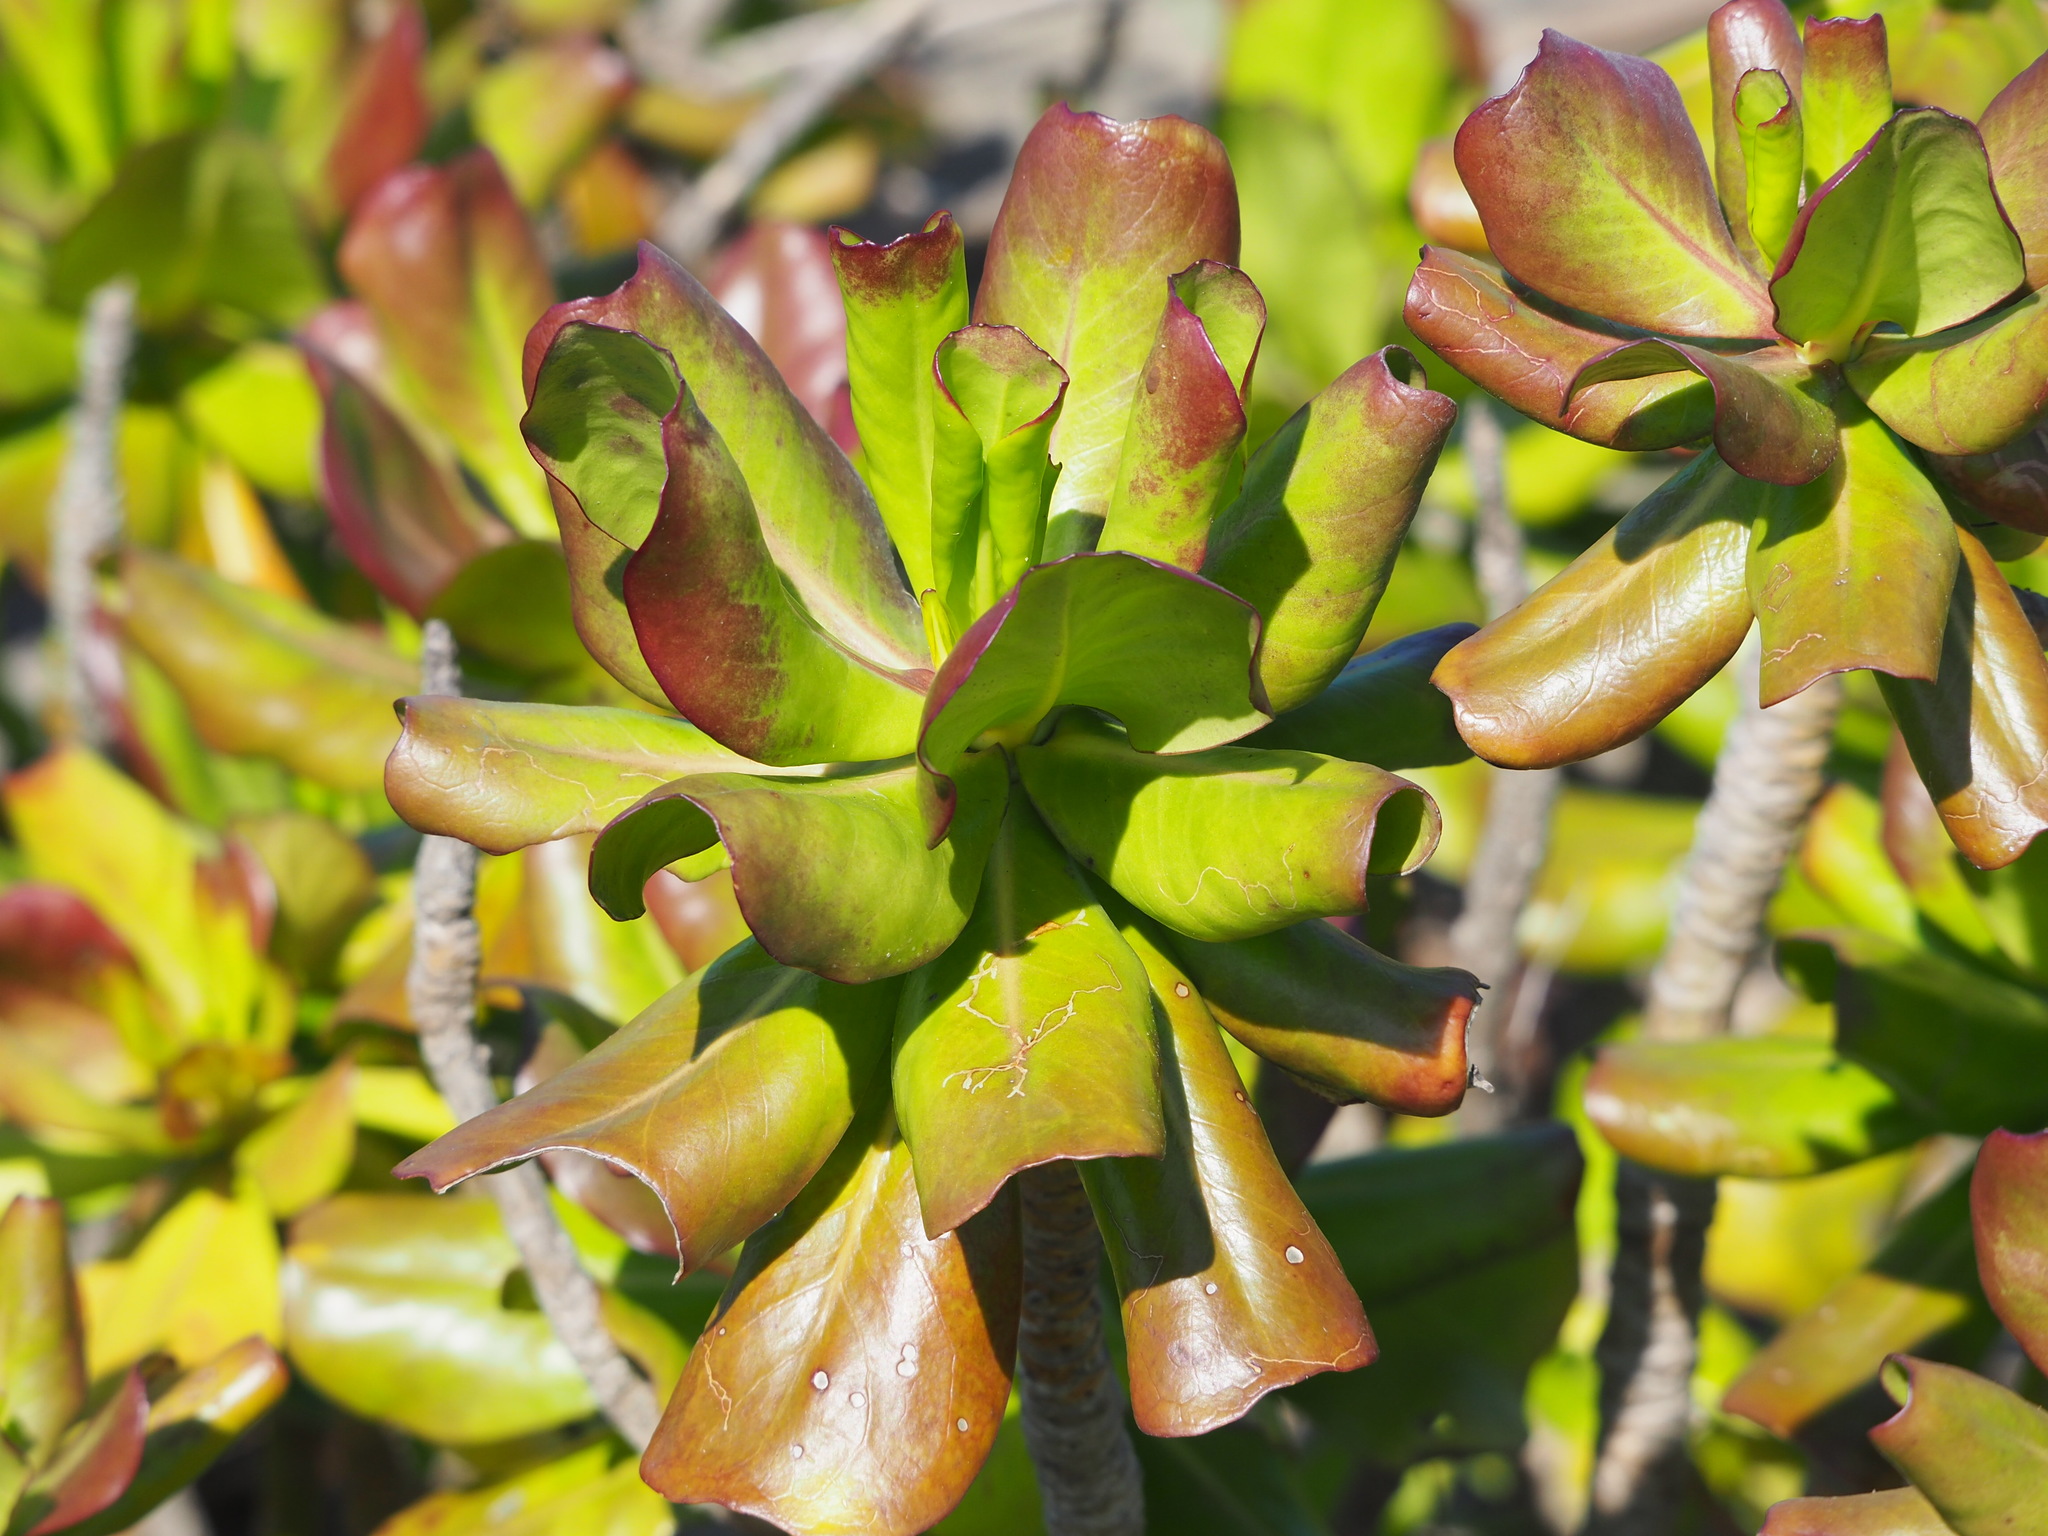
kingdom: Plantae
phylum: Tracheophyta
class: Magnoliopsida
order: Asterales
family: Goodeniaceae
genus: Scaevola
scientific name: Scaevola taccada
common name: Sea lettucetree
